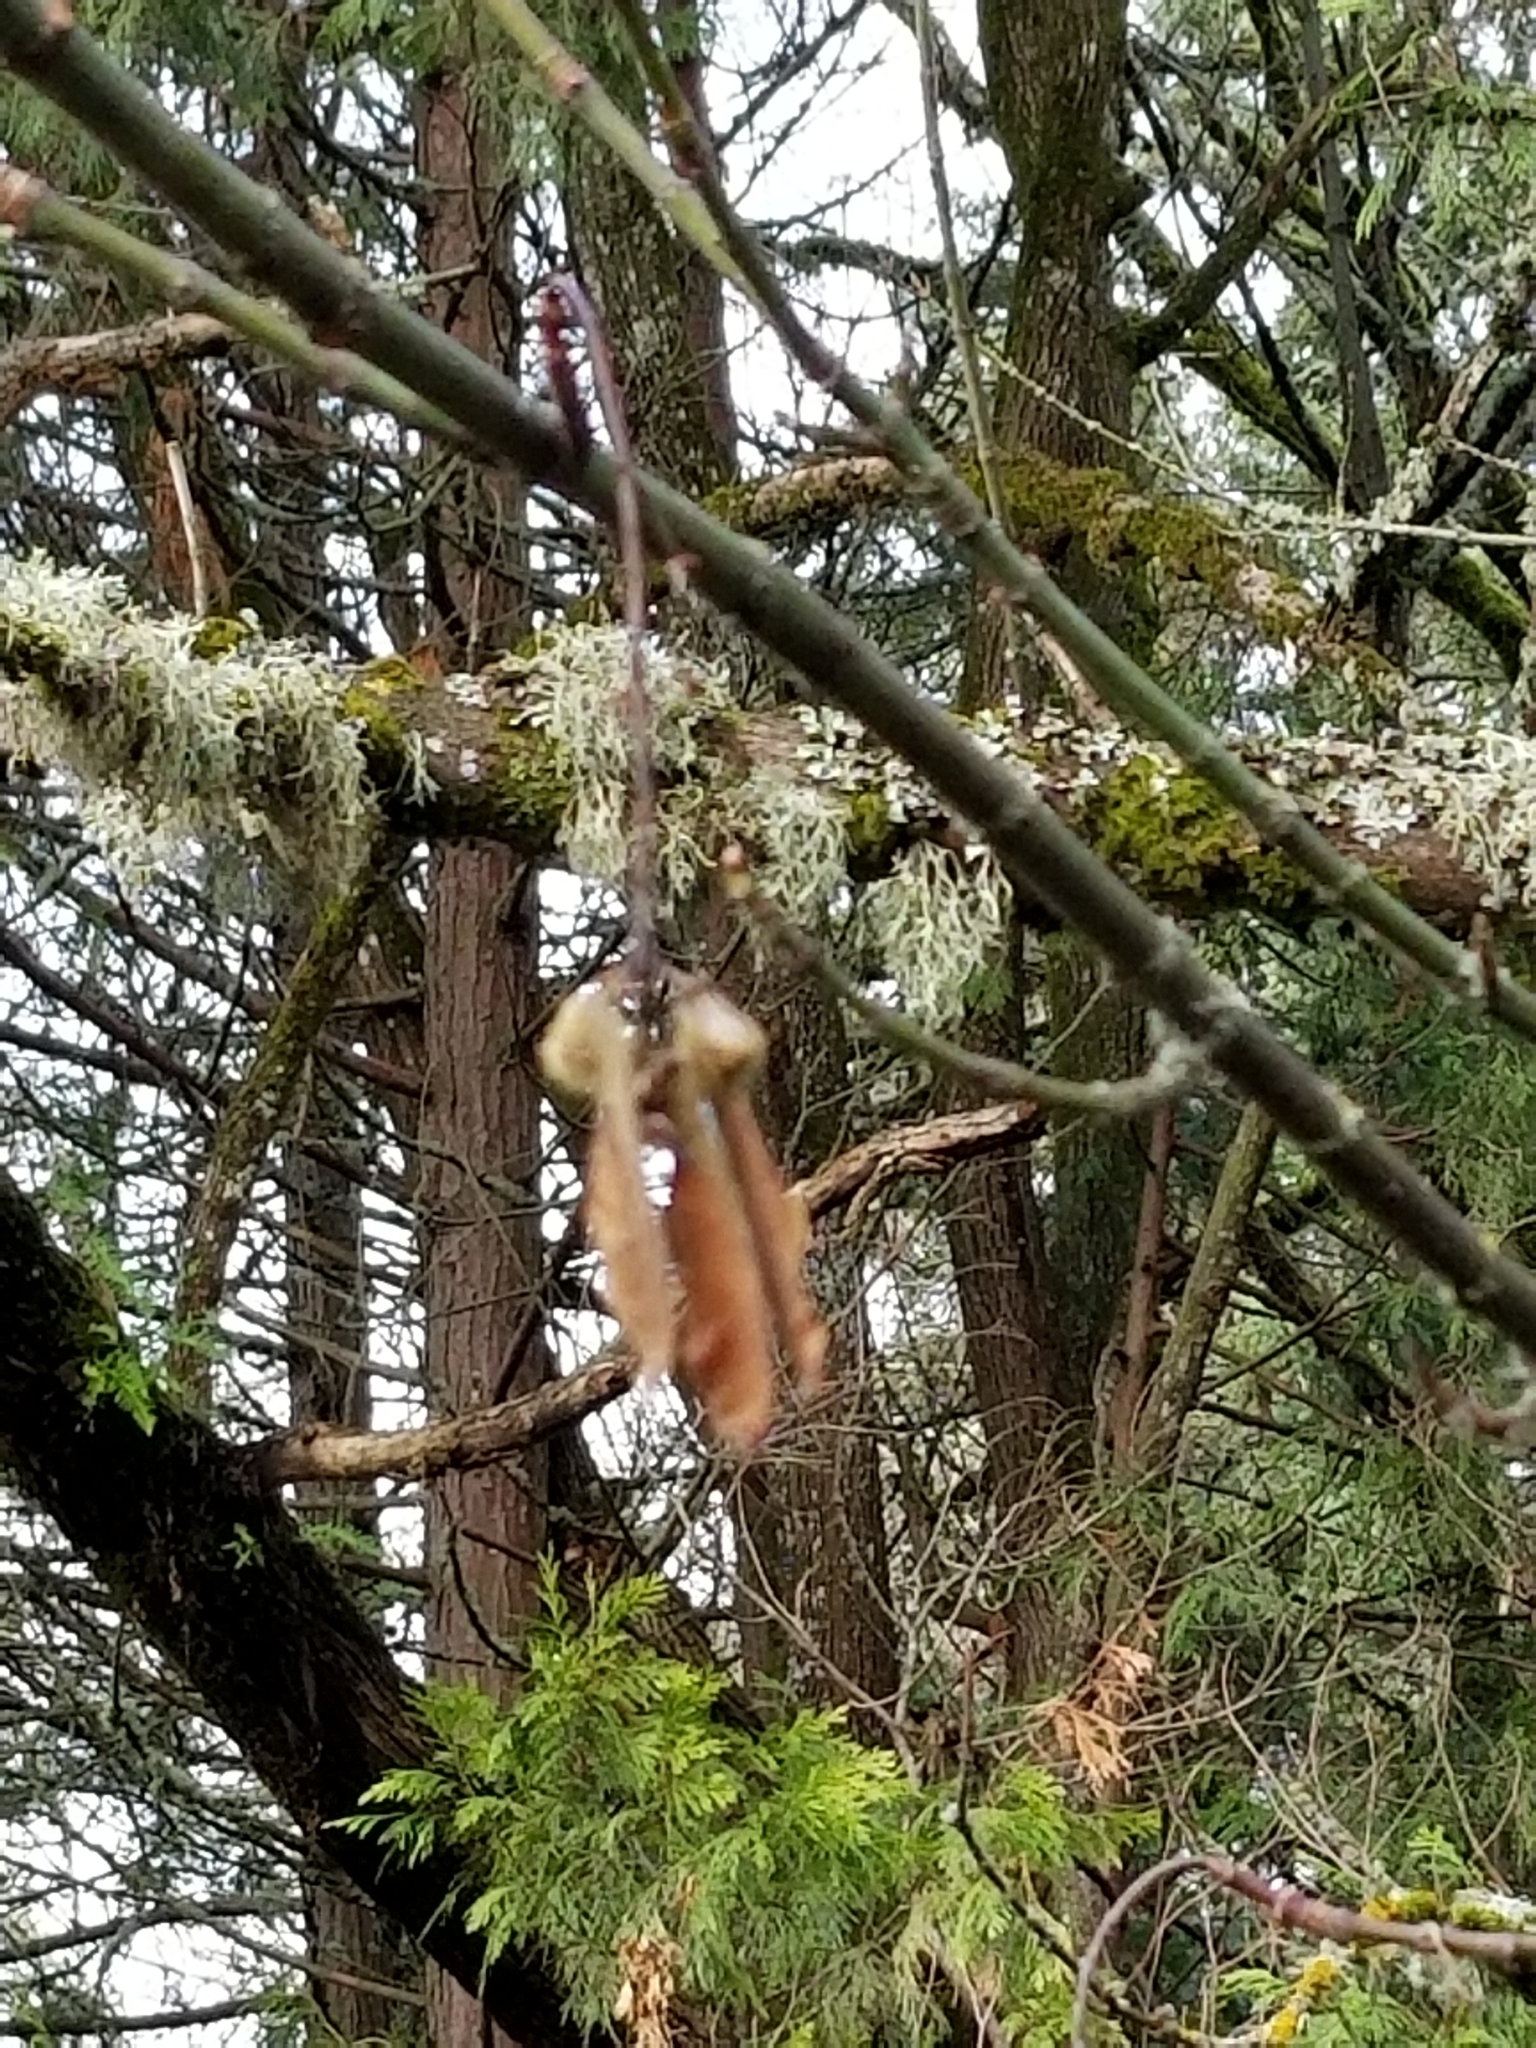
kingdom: Plantae
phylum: Tracheophyta
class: Magnoliopsida
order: Sapindales
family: Sapindaceae
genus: Acer
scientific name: Acer macrophyllum
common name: Oregon maple
